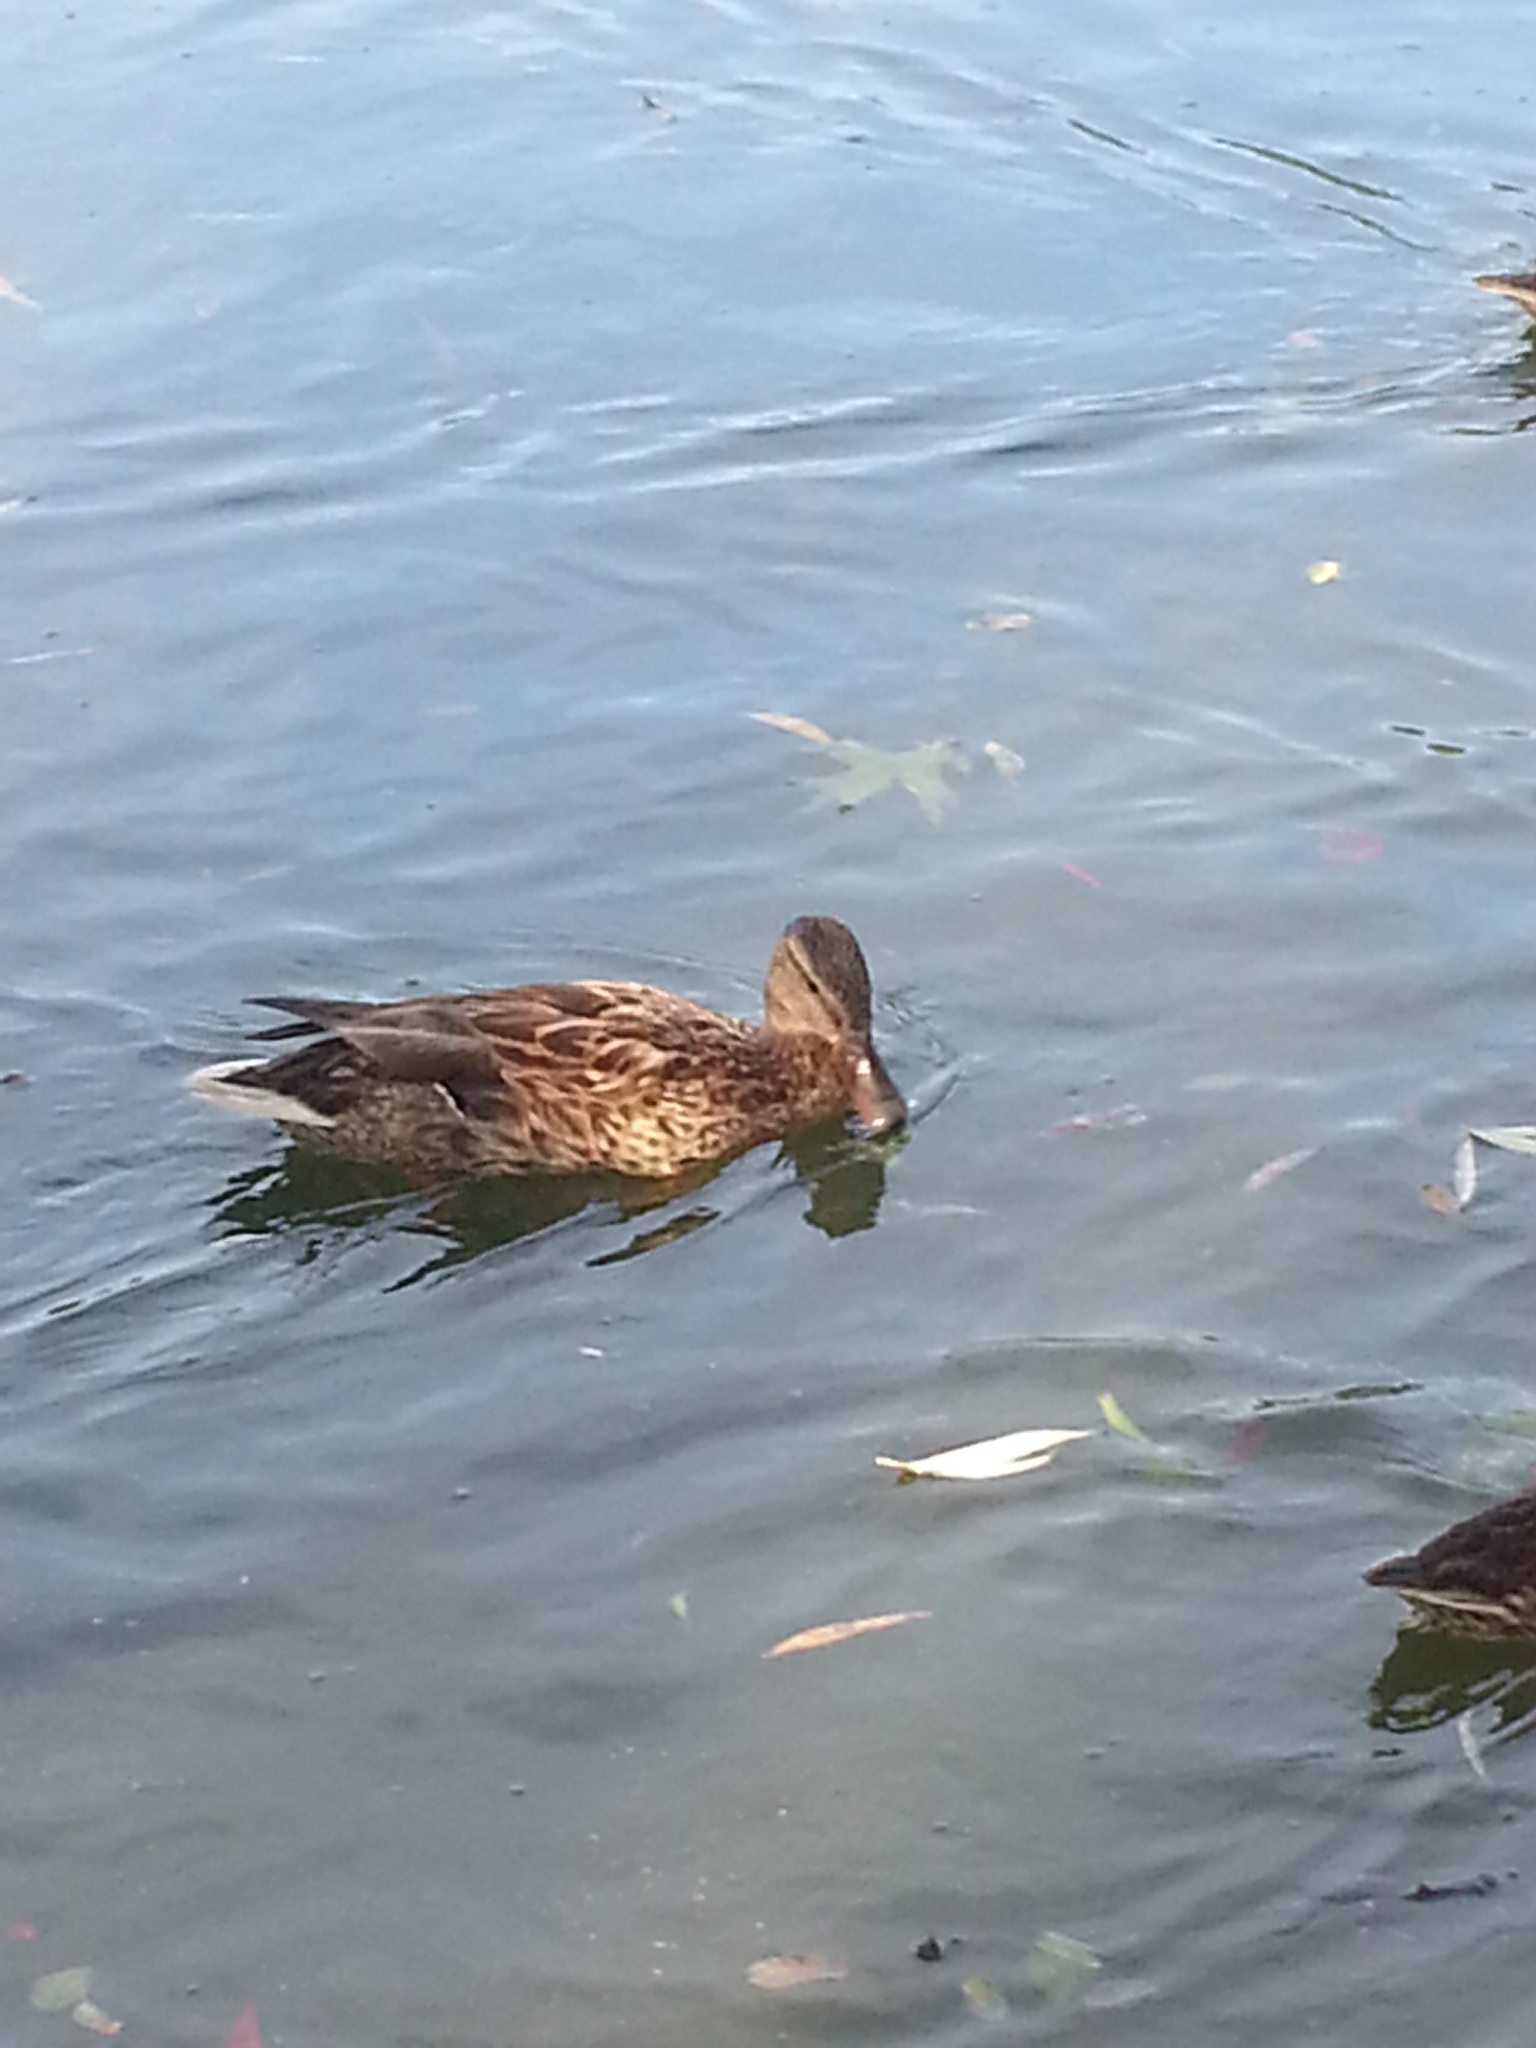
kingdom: Animalia
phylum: Chordata
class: Aves
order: Anseriformes
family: Anatidae
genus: Anas
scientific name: Anas platyrhynchos
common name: Mallard
